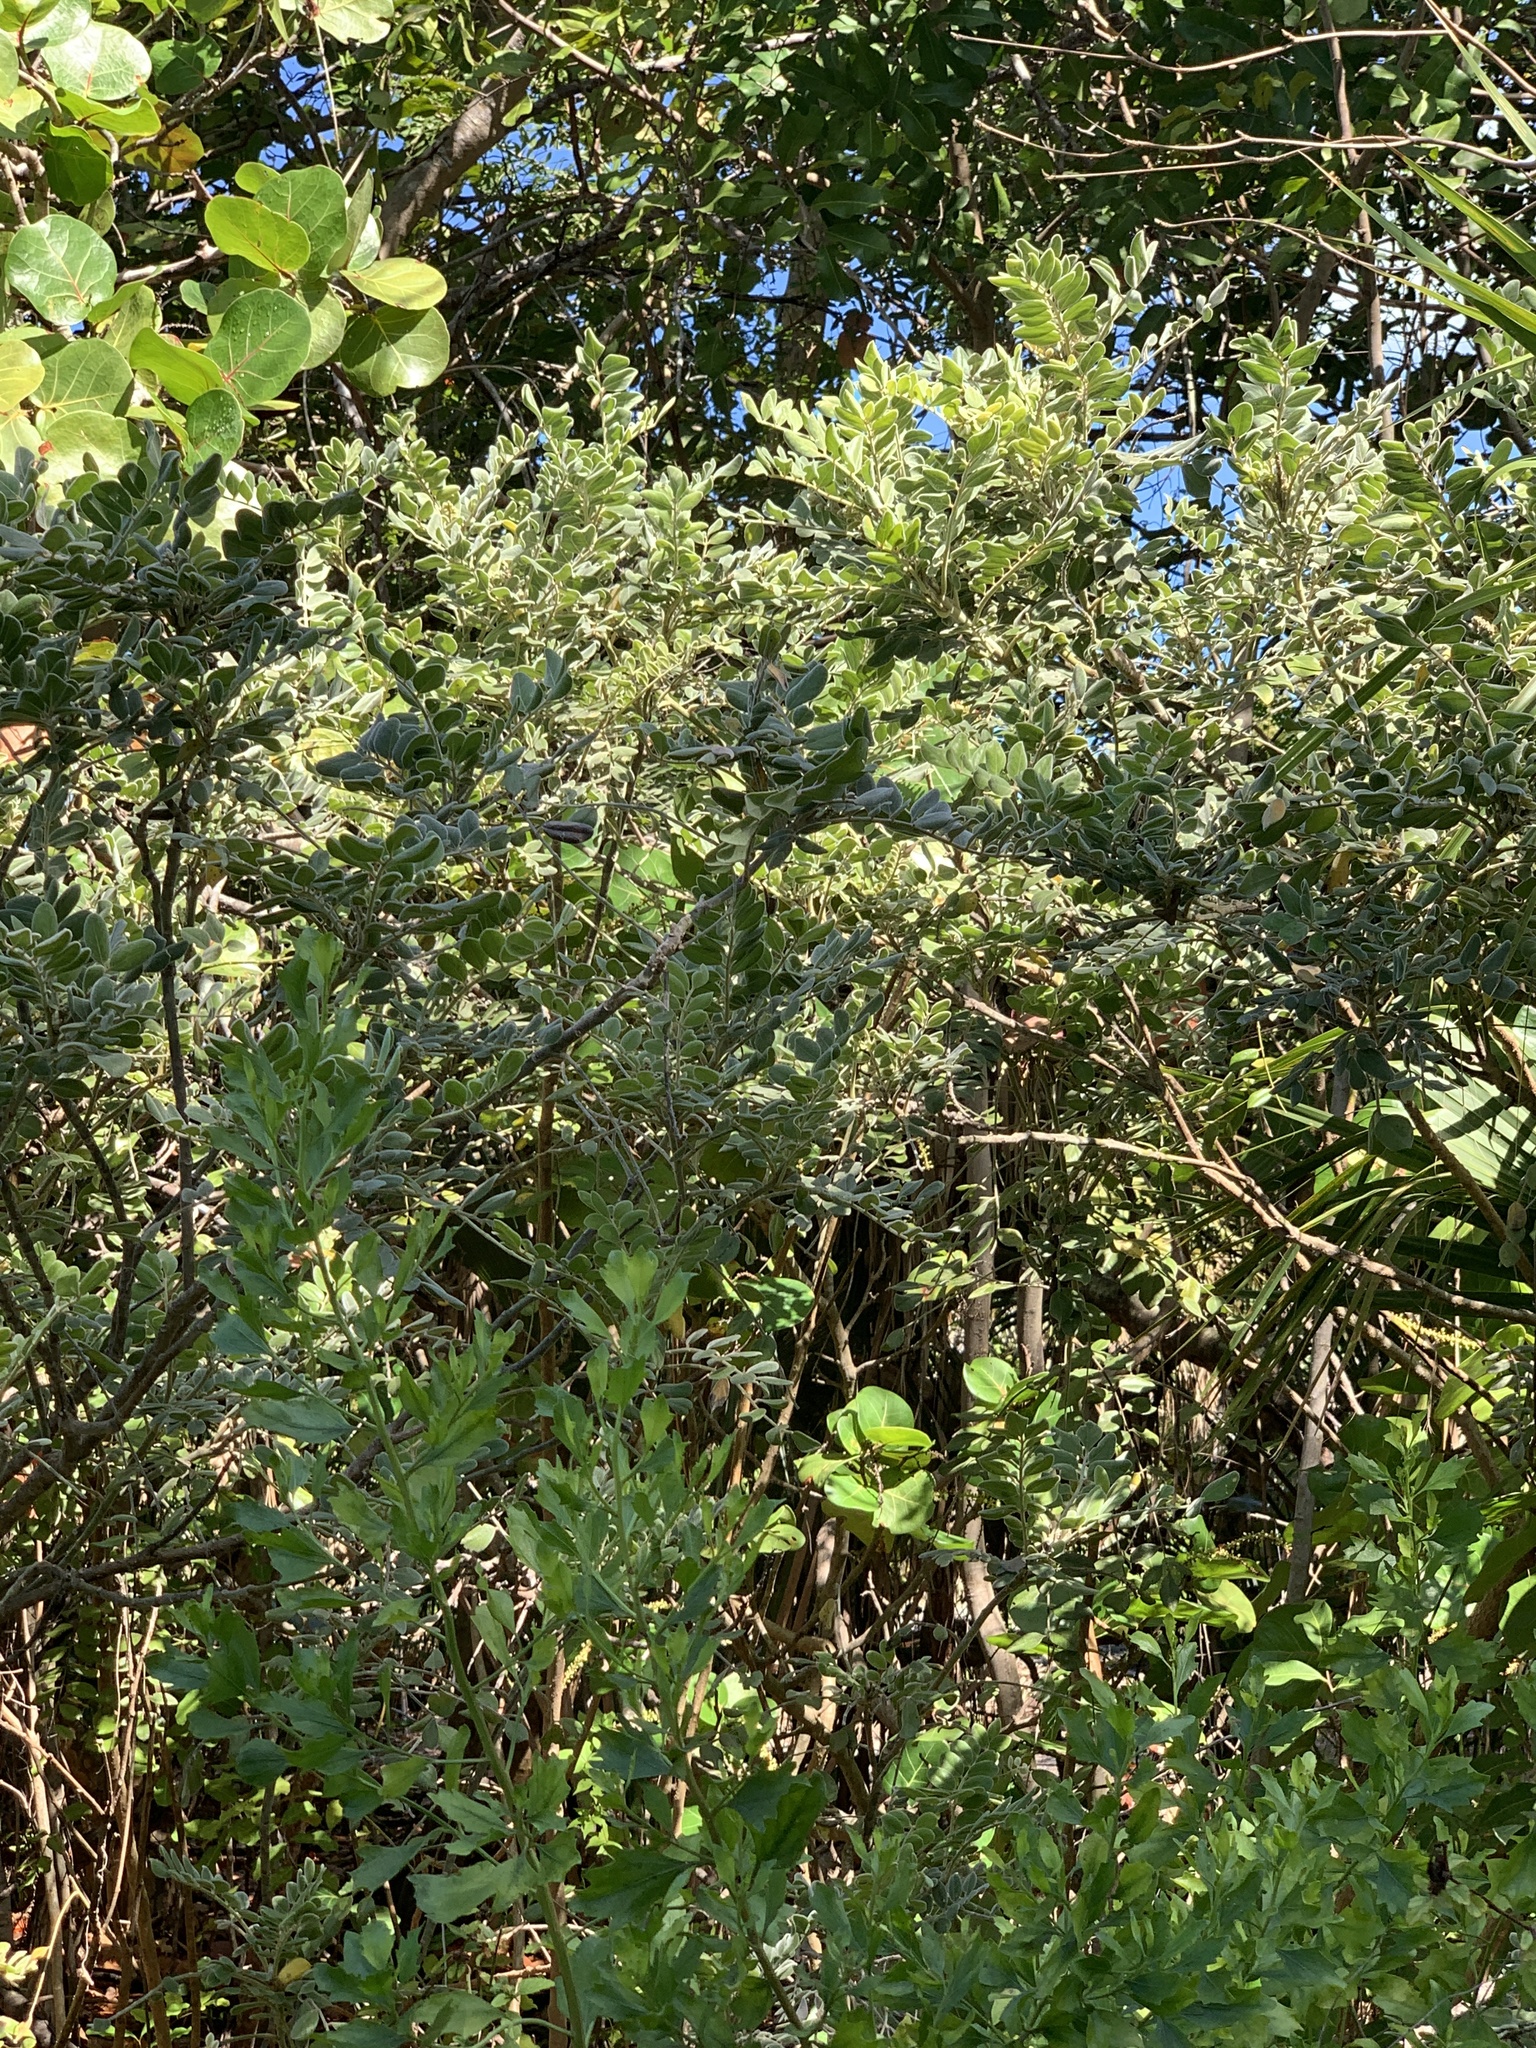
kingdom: Plantae
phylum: Tracheophyta
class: Magnoliopsida
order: Fabales
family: Fabaceae
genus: Sophora
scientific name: Sophora tomentosa
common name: Yellow necklacepod
